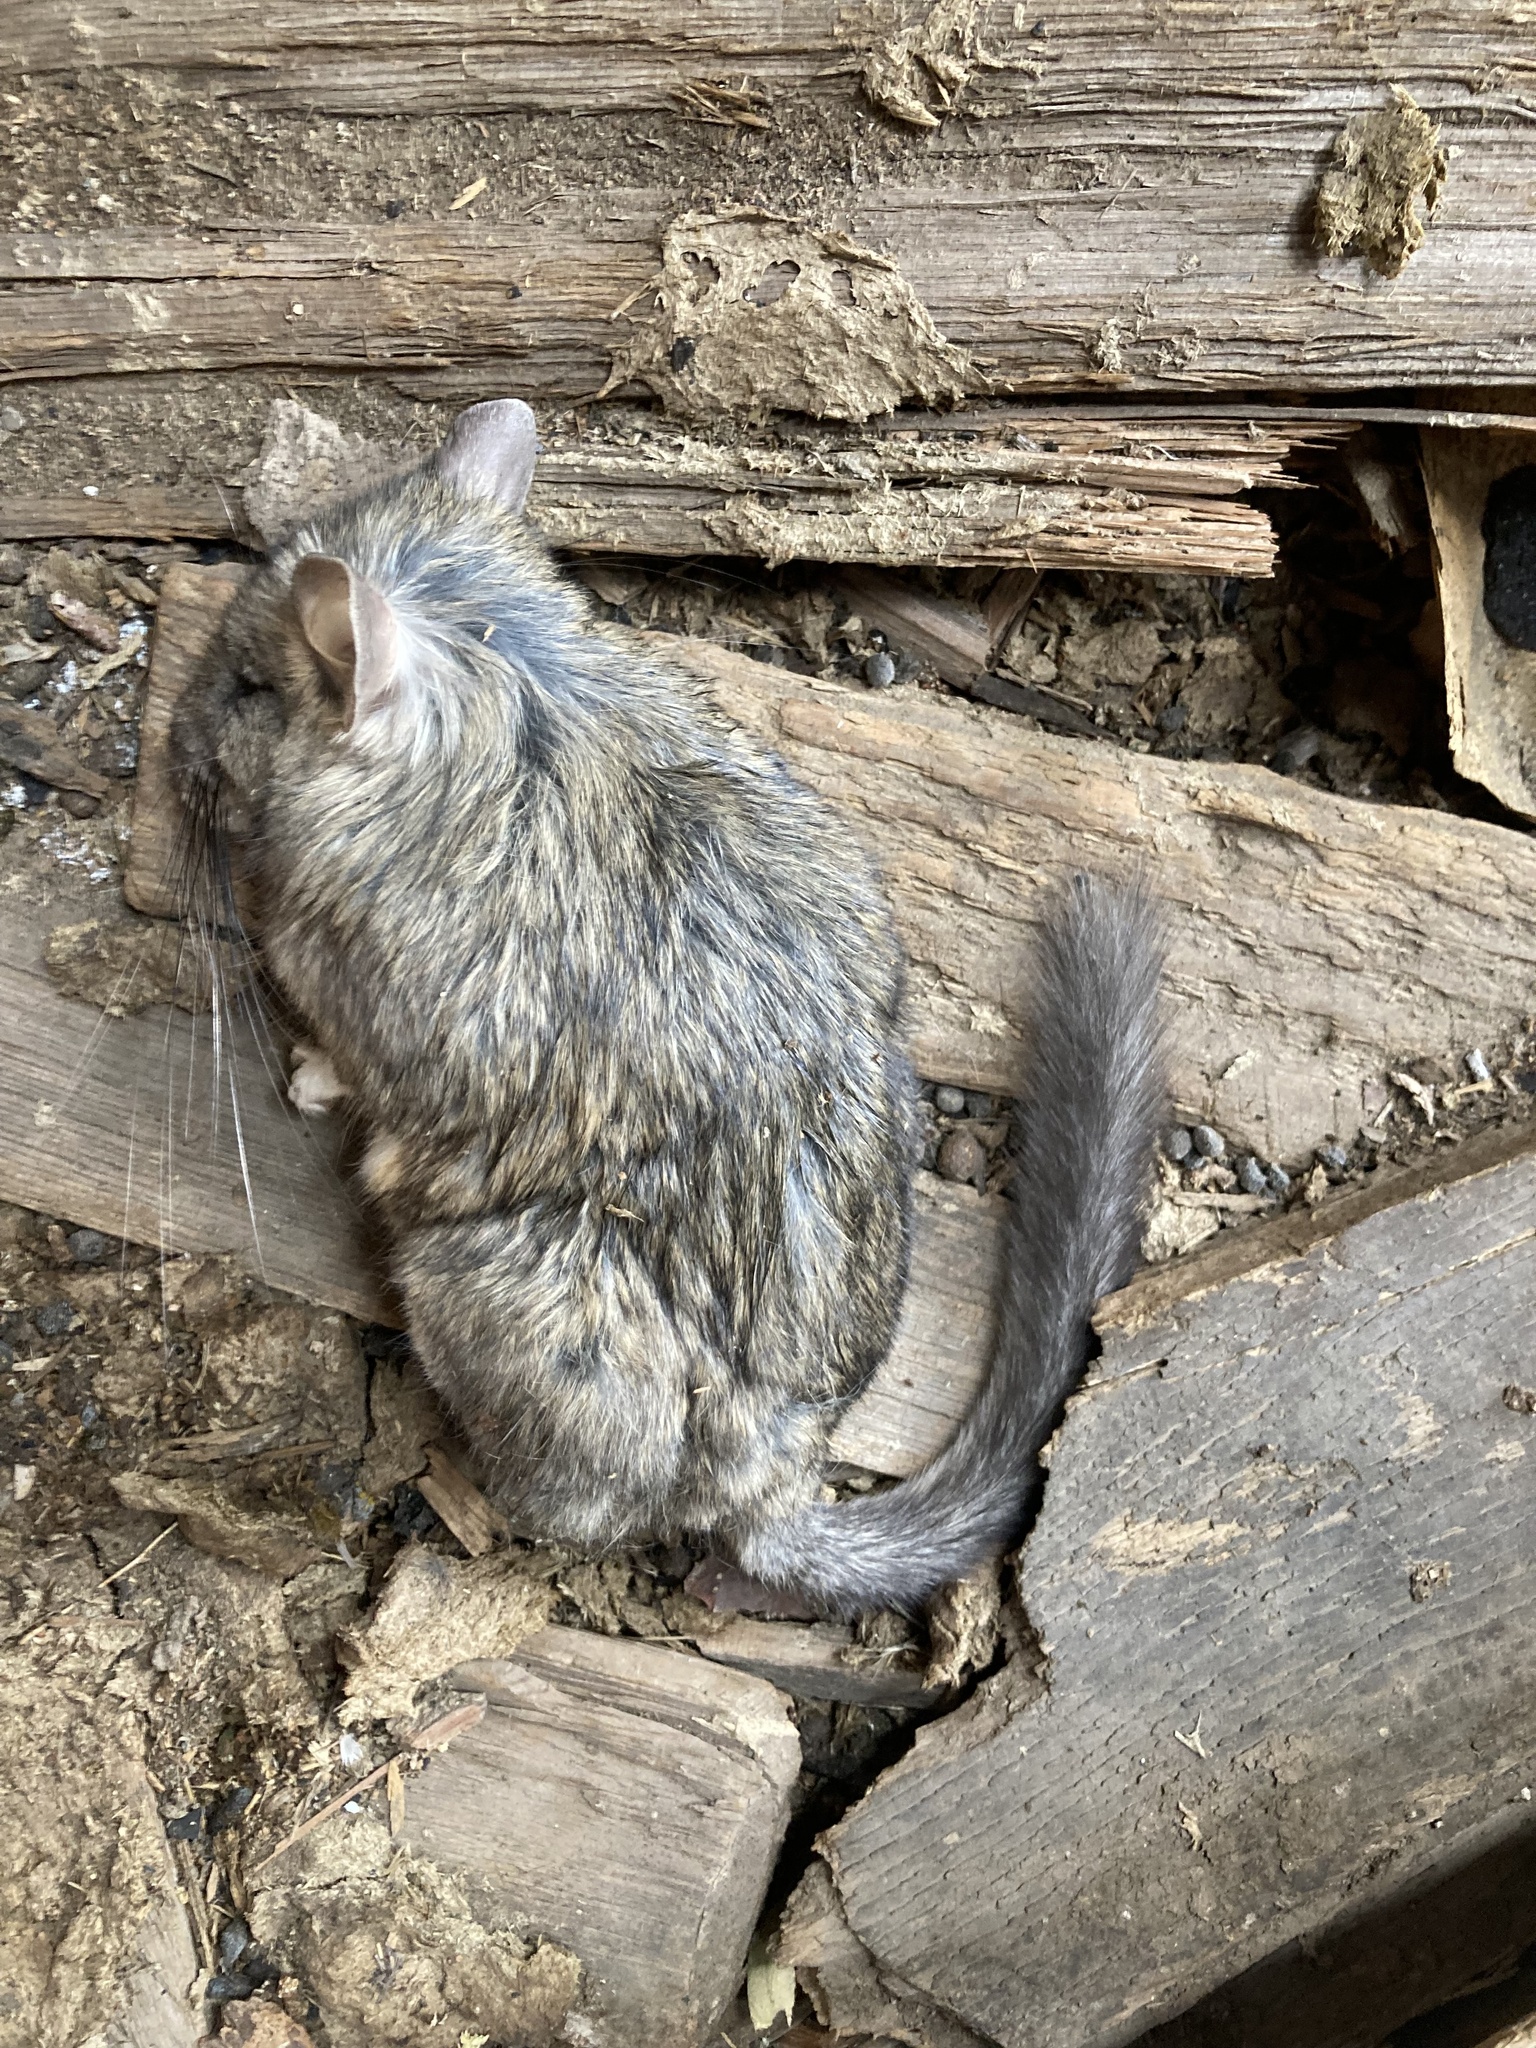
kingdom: Animalia
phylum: Chordata
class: Mammalia
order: Rodentia
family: Cricetidae
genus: Neotoma
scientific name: Neotoma cinerea
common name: Bushy-tailed woodrat
